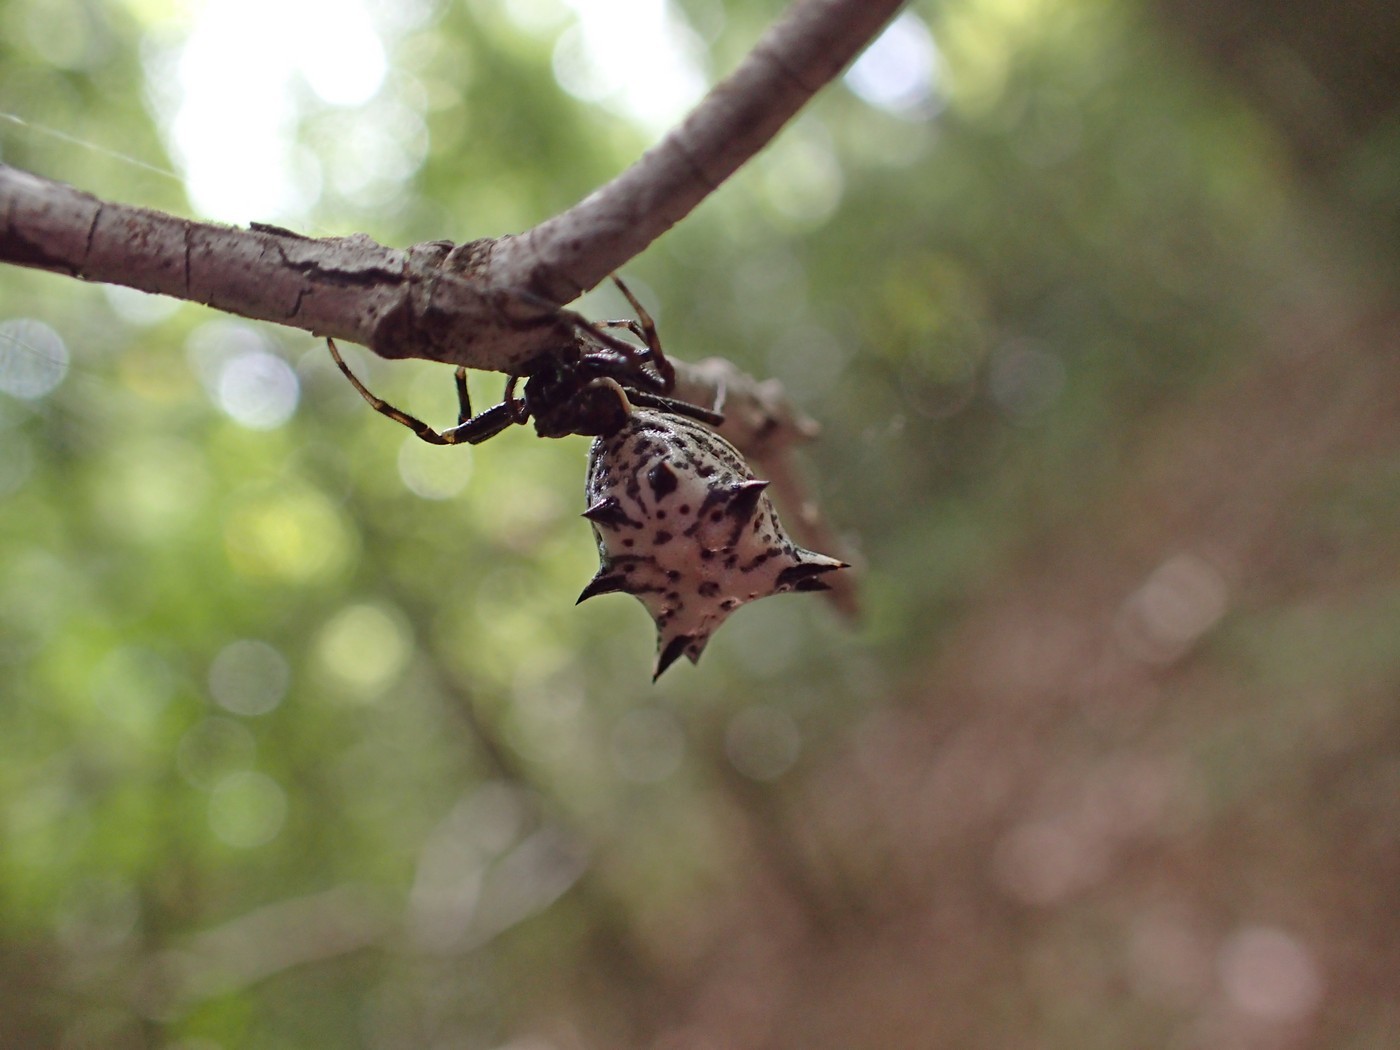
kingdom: Animalia
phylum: Arthropoda
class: Arachnida
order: Araneae
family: Araneidae
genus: Micrathena
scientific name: Micrathena gracilis
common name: Orb weavers
